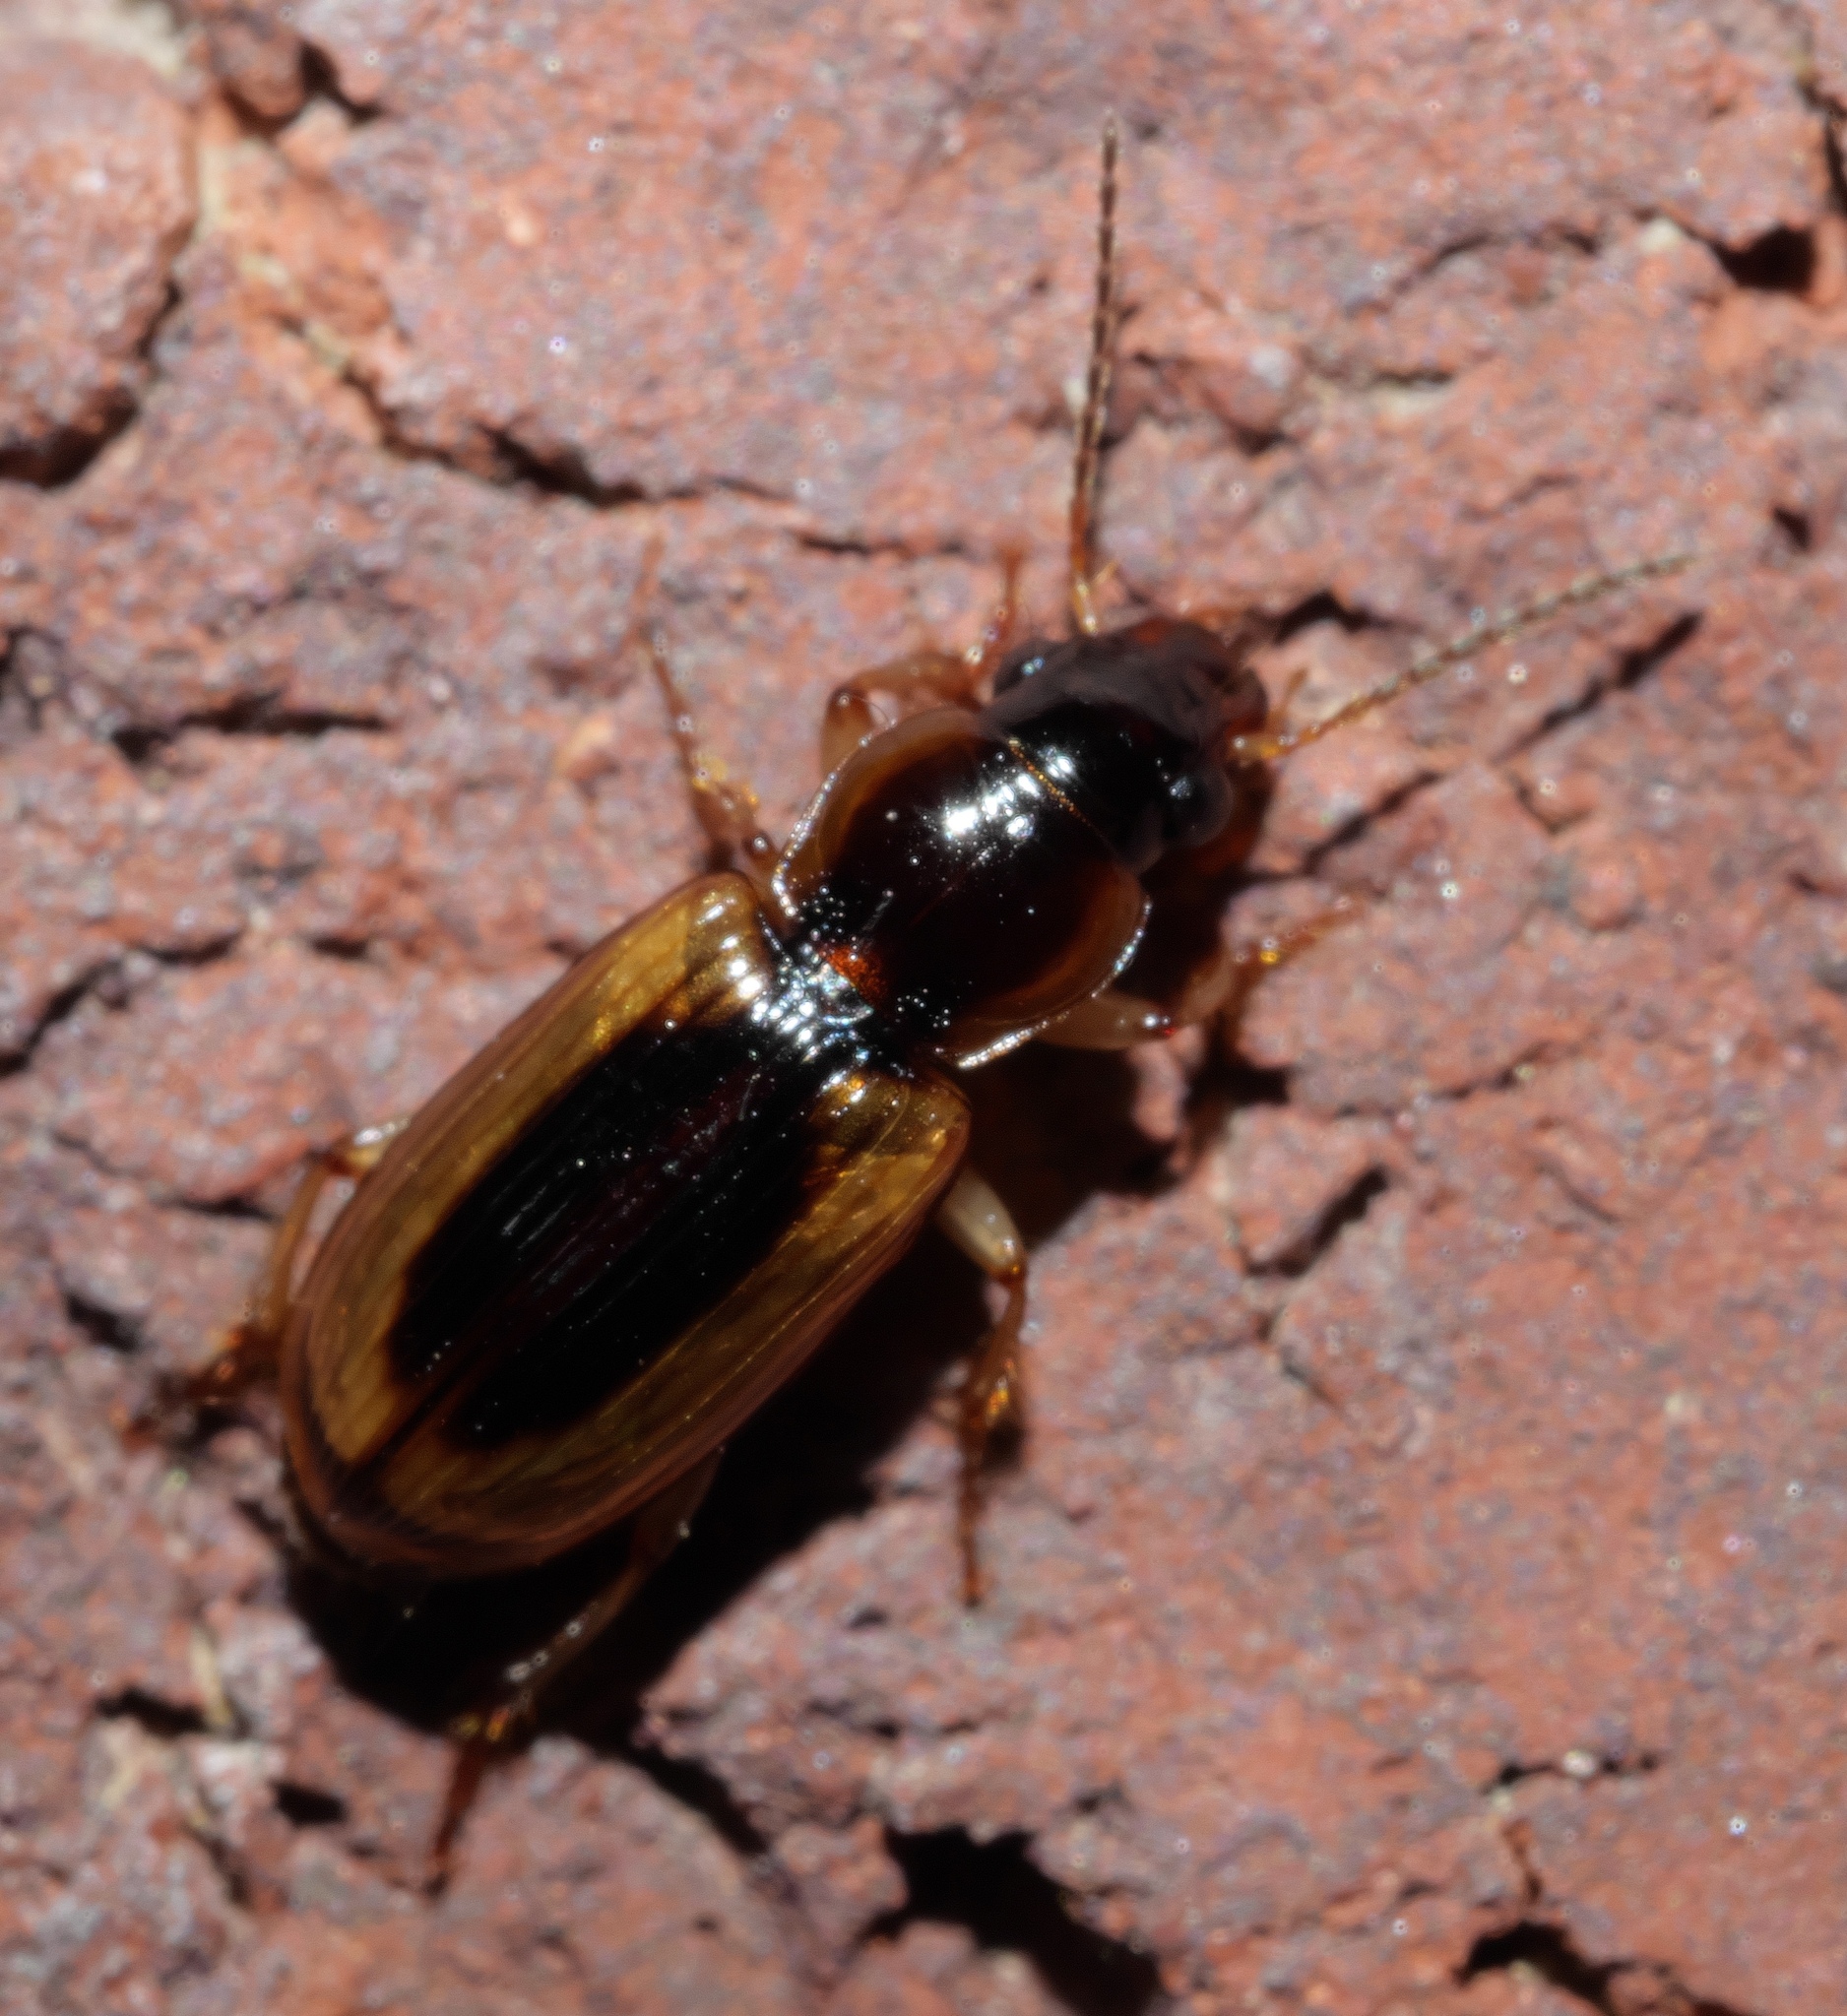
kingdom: Animalia
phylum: Arthropoda
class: Insecta
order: Coleoptera
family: Carabidae
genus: Stenolophus
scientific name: Stenolophus lecontei
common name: Leconte's seedcorn beetle
